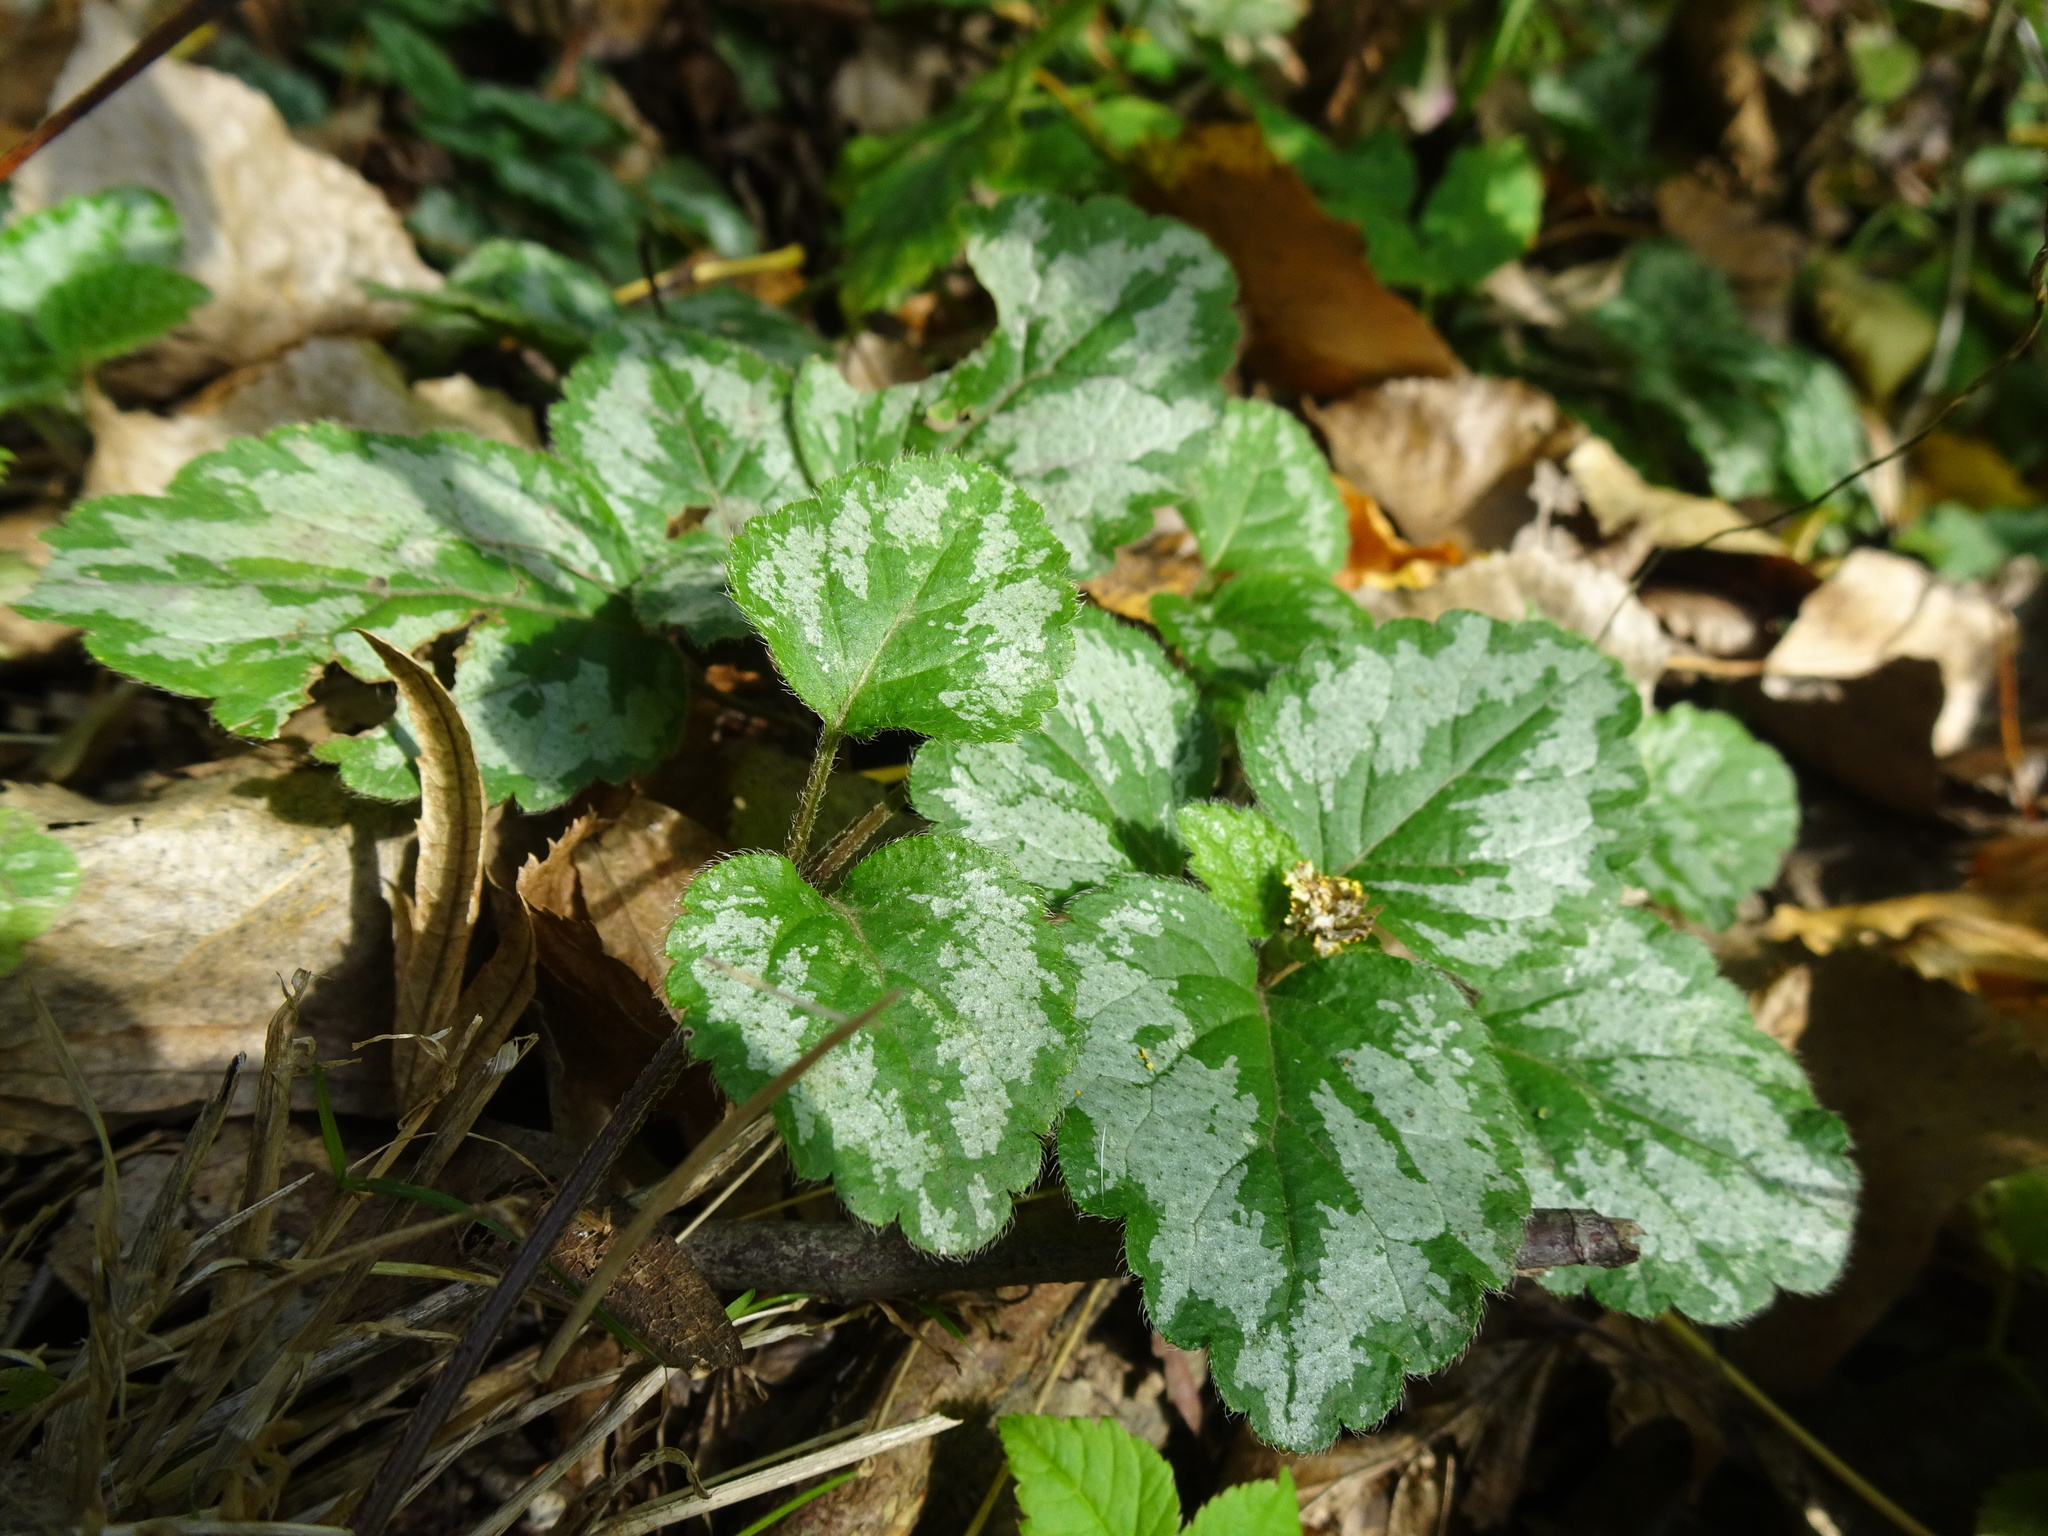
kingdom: Plantae
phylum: Tracheophyta
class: Magnoliopsida
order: Lamiales
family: Lamiaceae
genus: Lamium
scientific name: Lamium galeobdolon
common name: Yellow archangel
